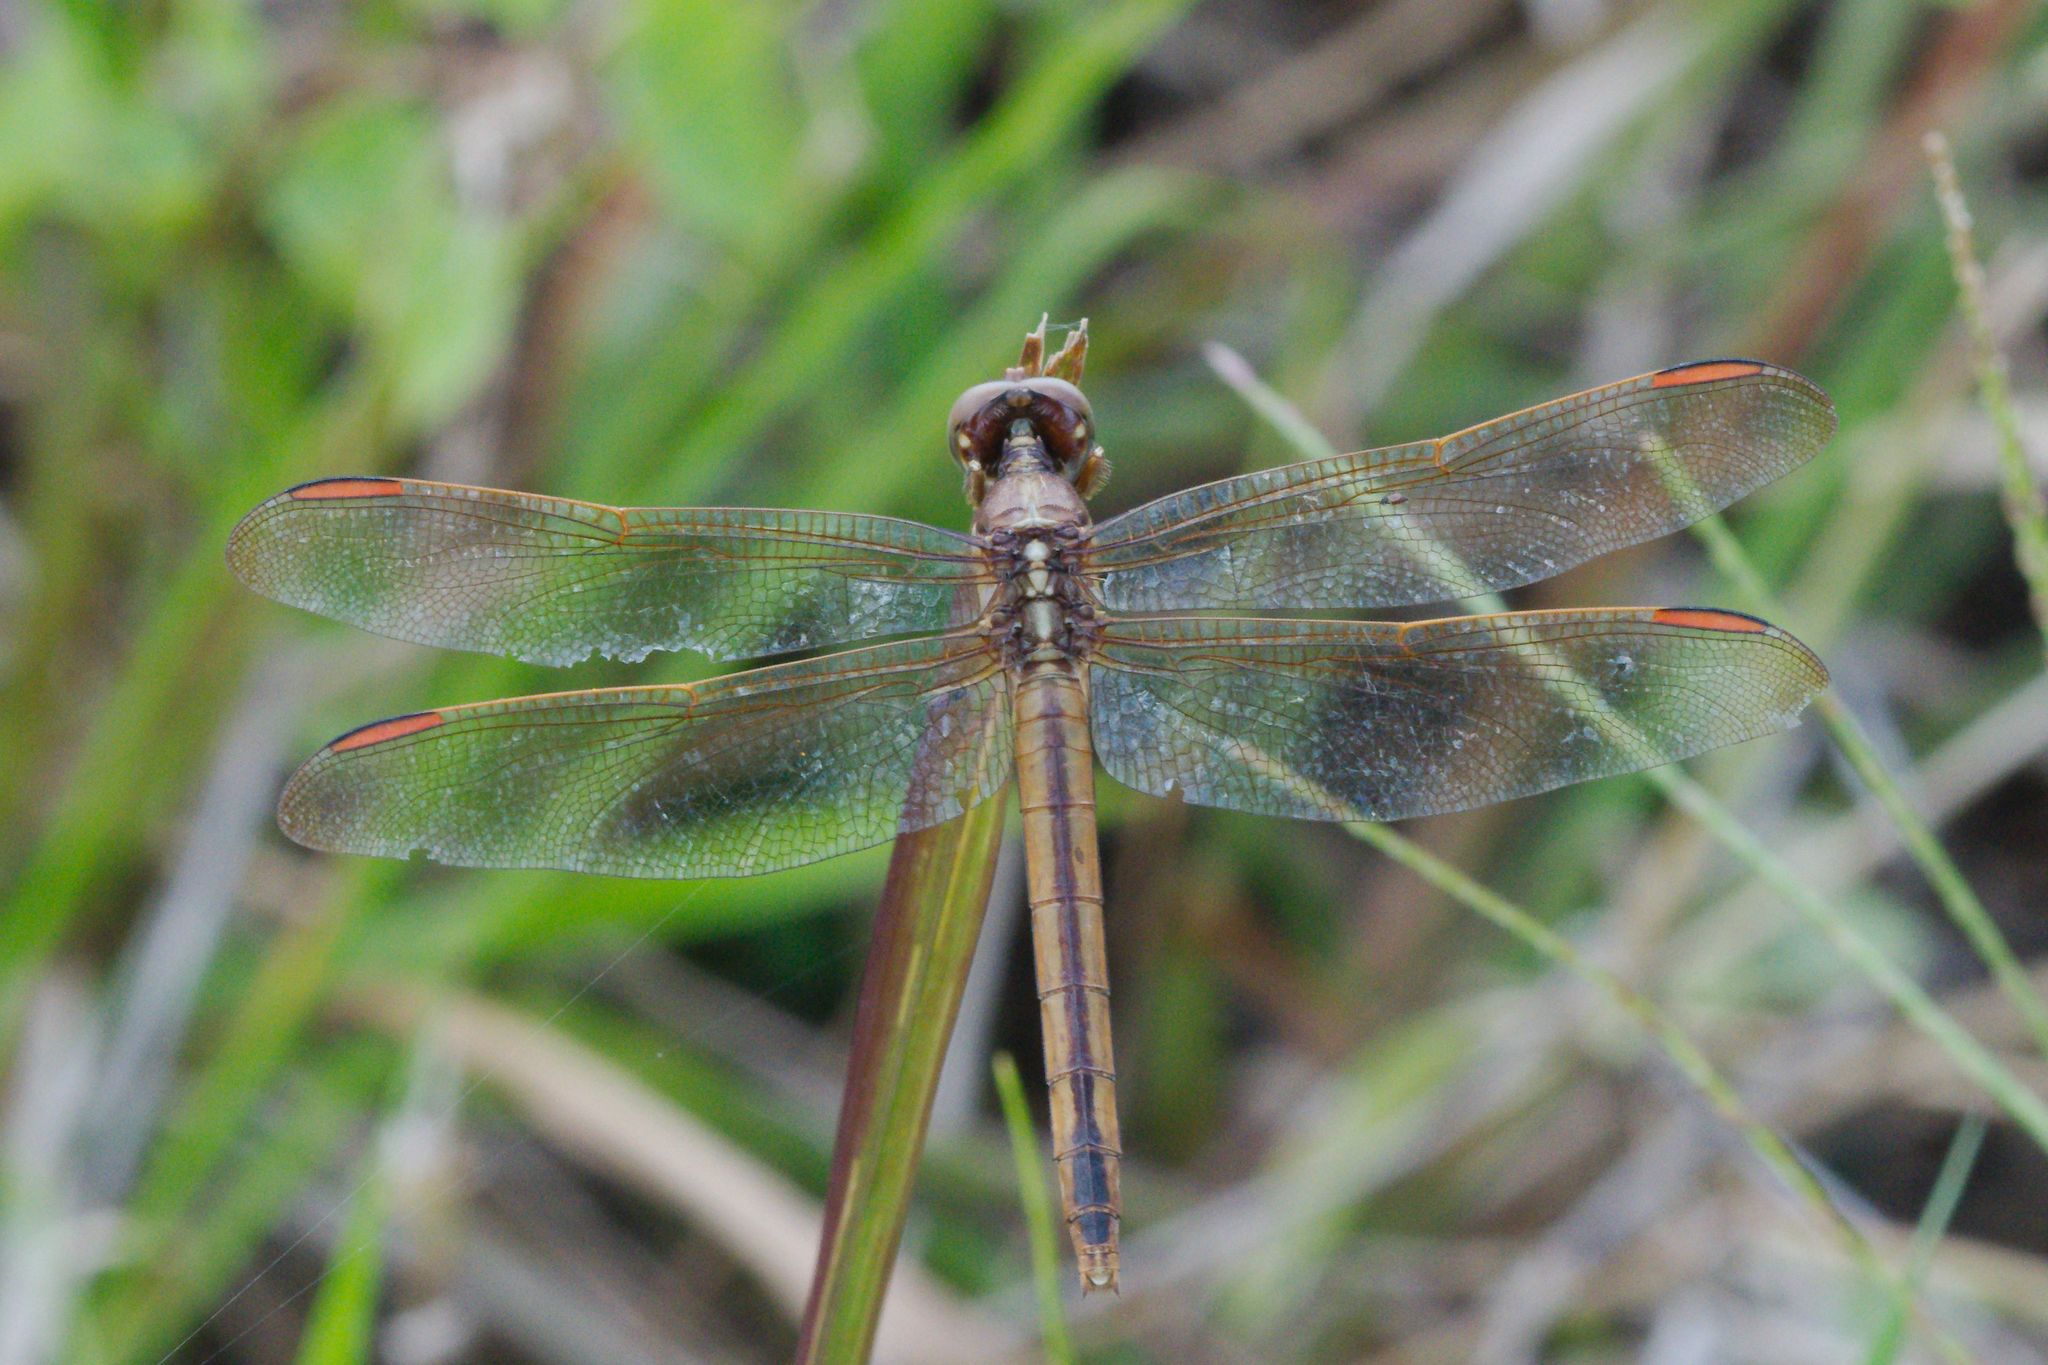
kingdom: Animalia
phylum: Arthropoda
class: Insecta
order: Odonata
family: Libellulidae
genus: Libellula
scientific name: Libellula auripennis
